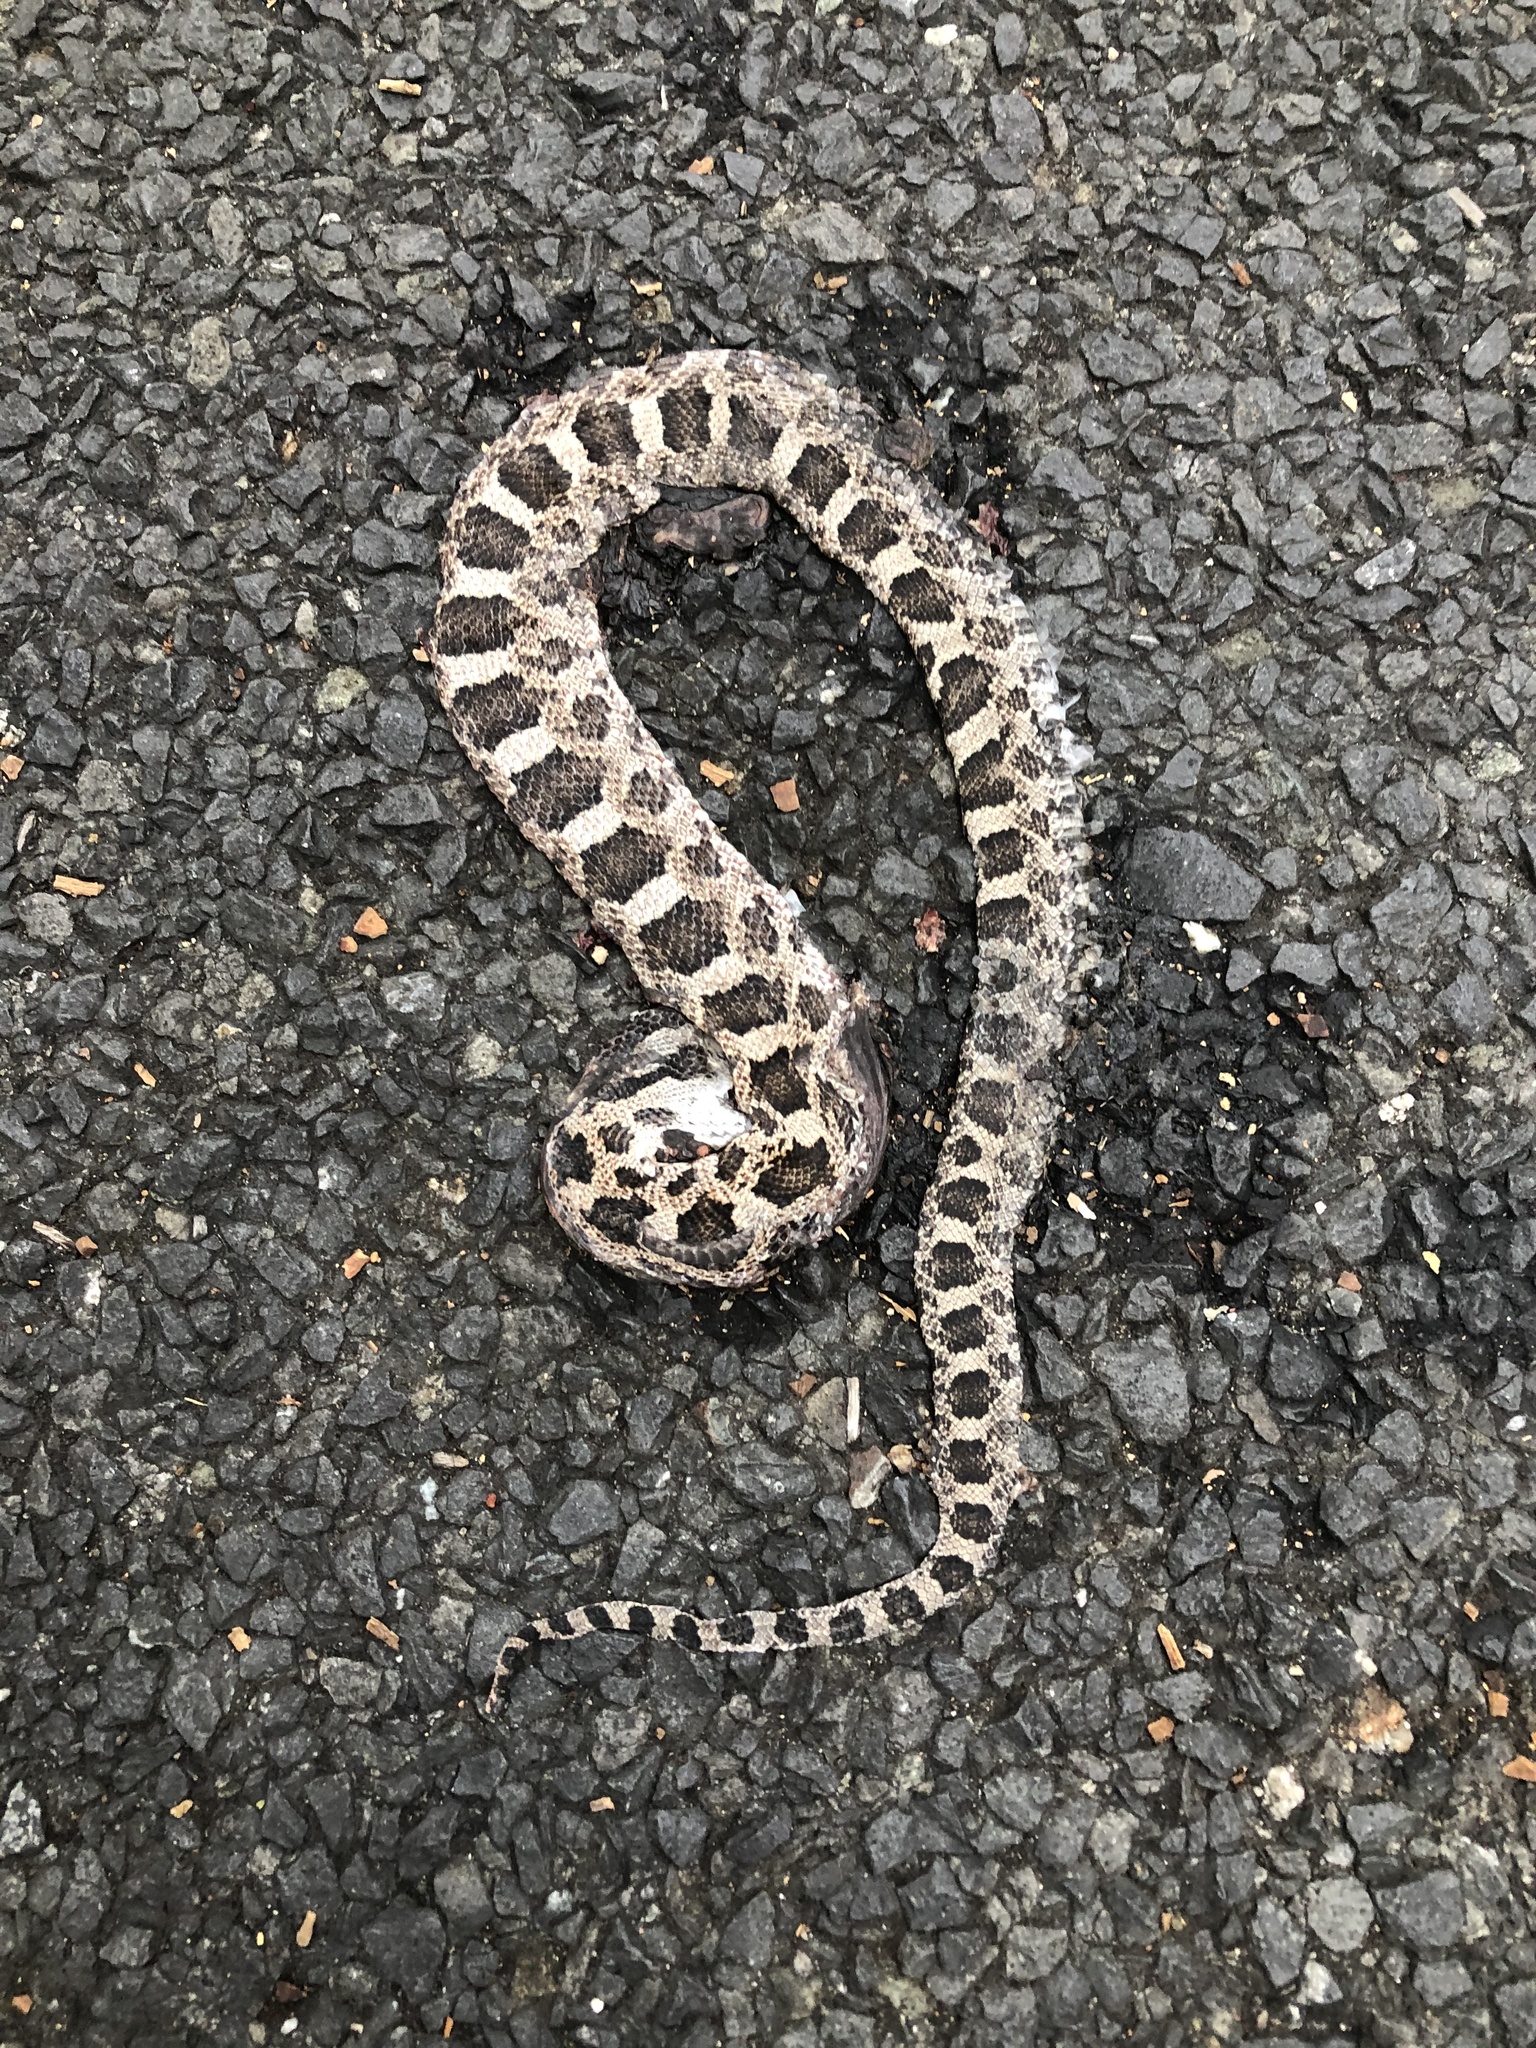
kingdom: Animalia
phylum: Chordata
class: Squamata
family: Colubridae
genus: Pantherophis
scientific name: Pantherophis obsoletus
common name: Black rat snake
